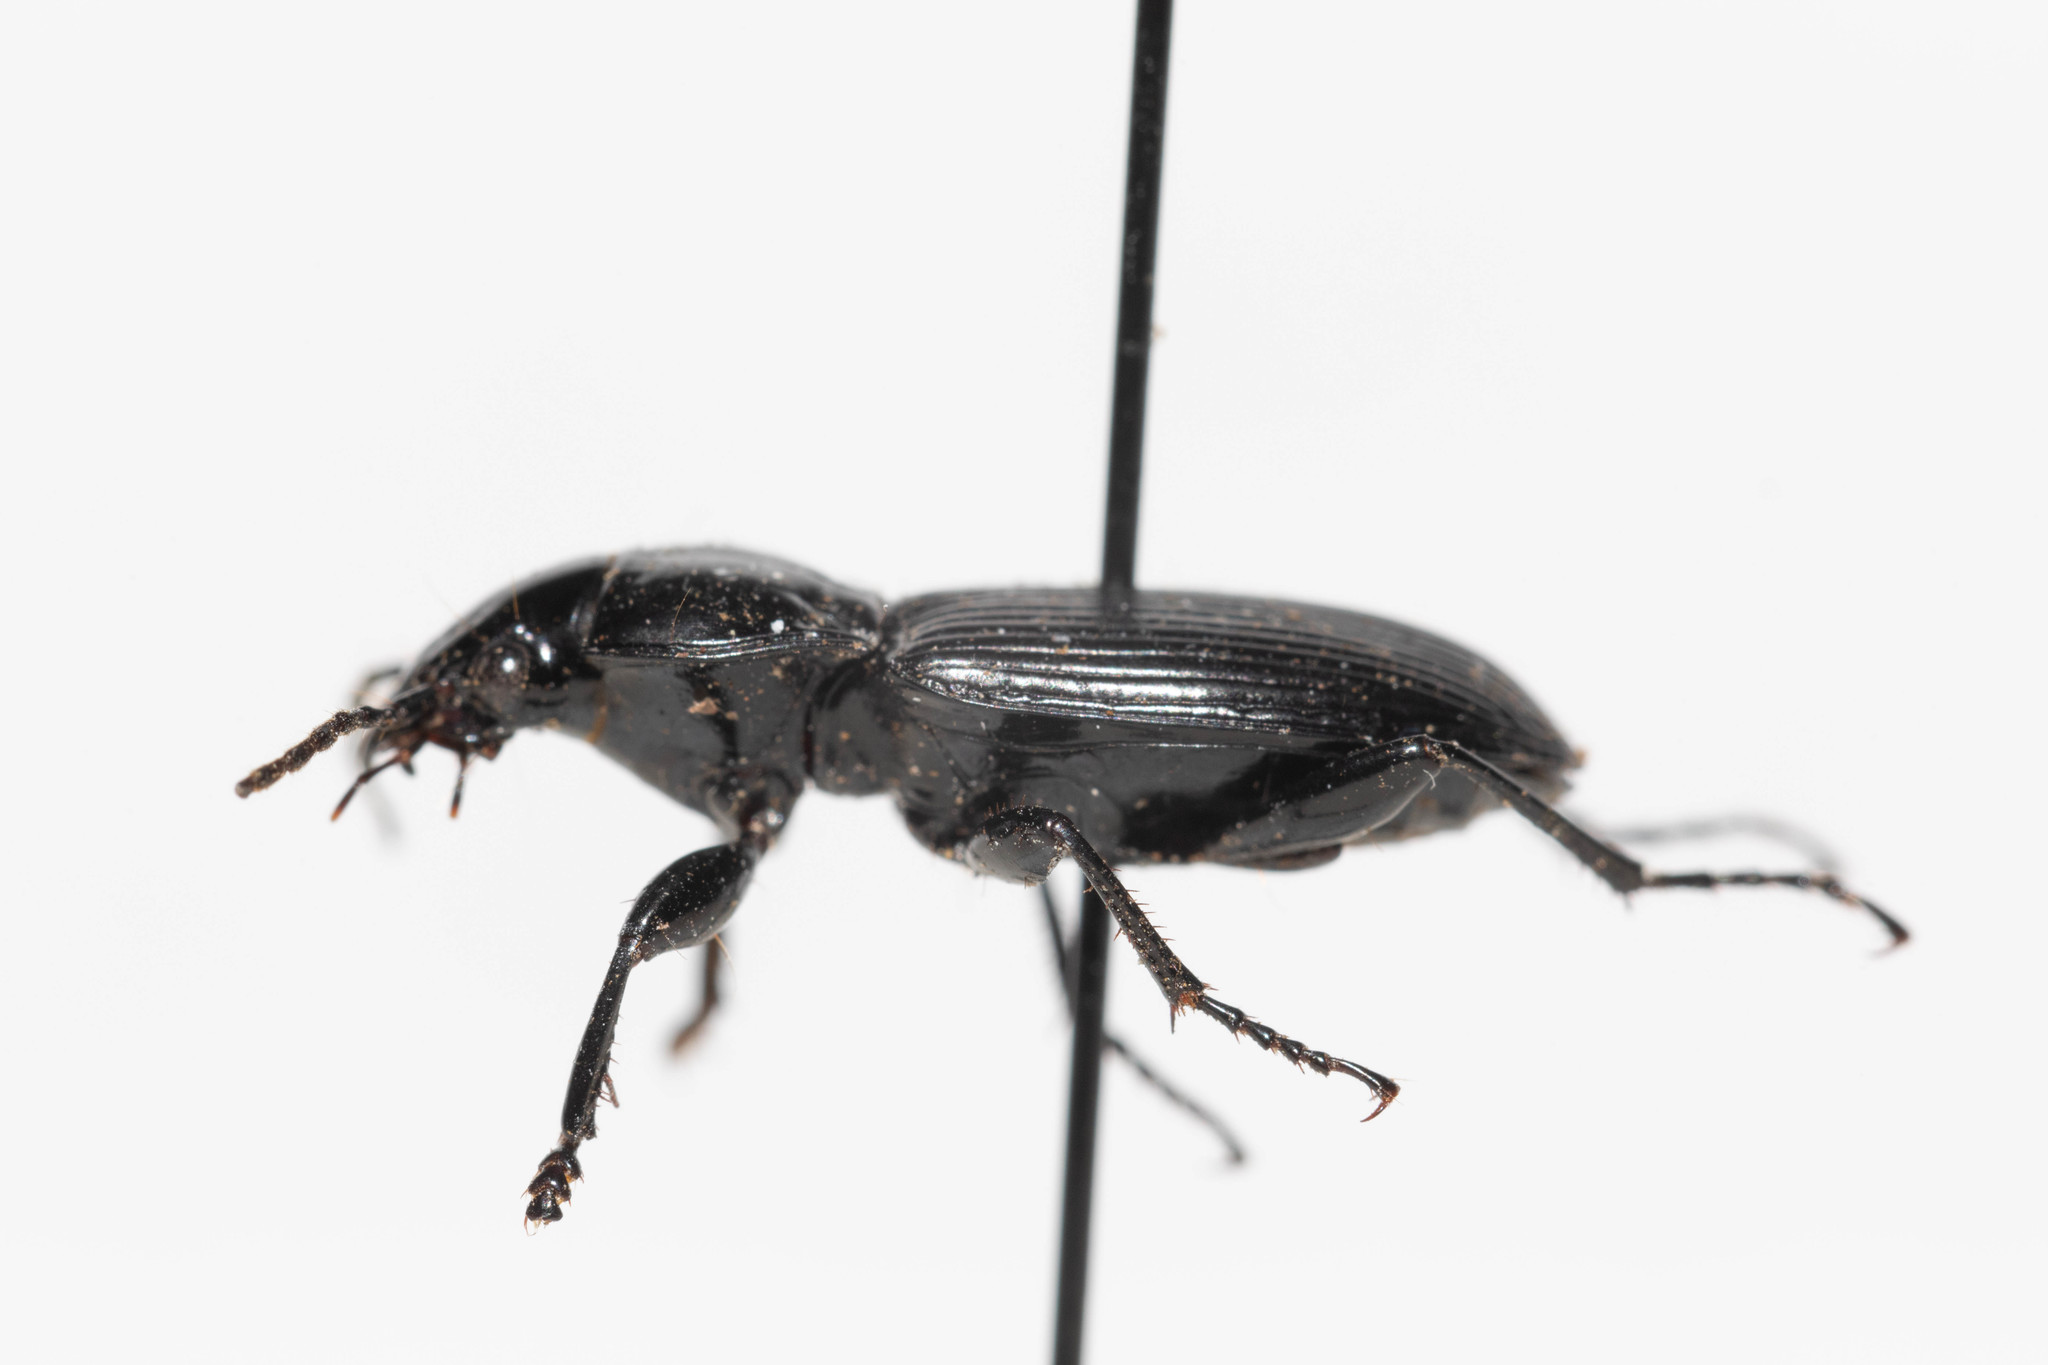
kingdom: Animalia
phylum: Arthropoda
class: Insecta
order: Coleoptera
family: Carabidae
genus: Pterostichus
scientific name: Pterostichus melanarius
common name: European dark harp ground beetle
